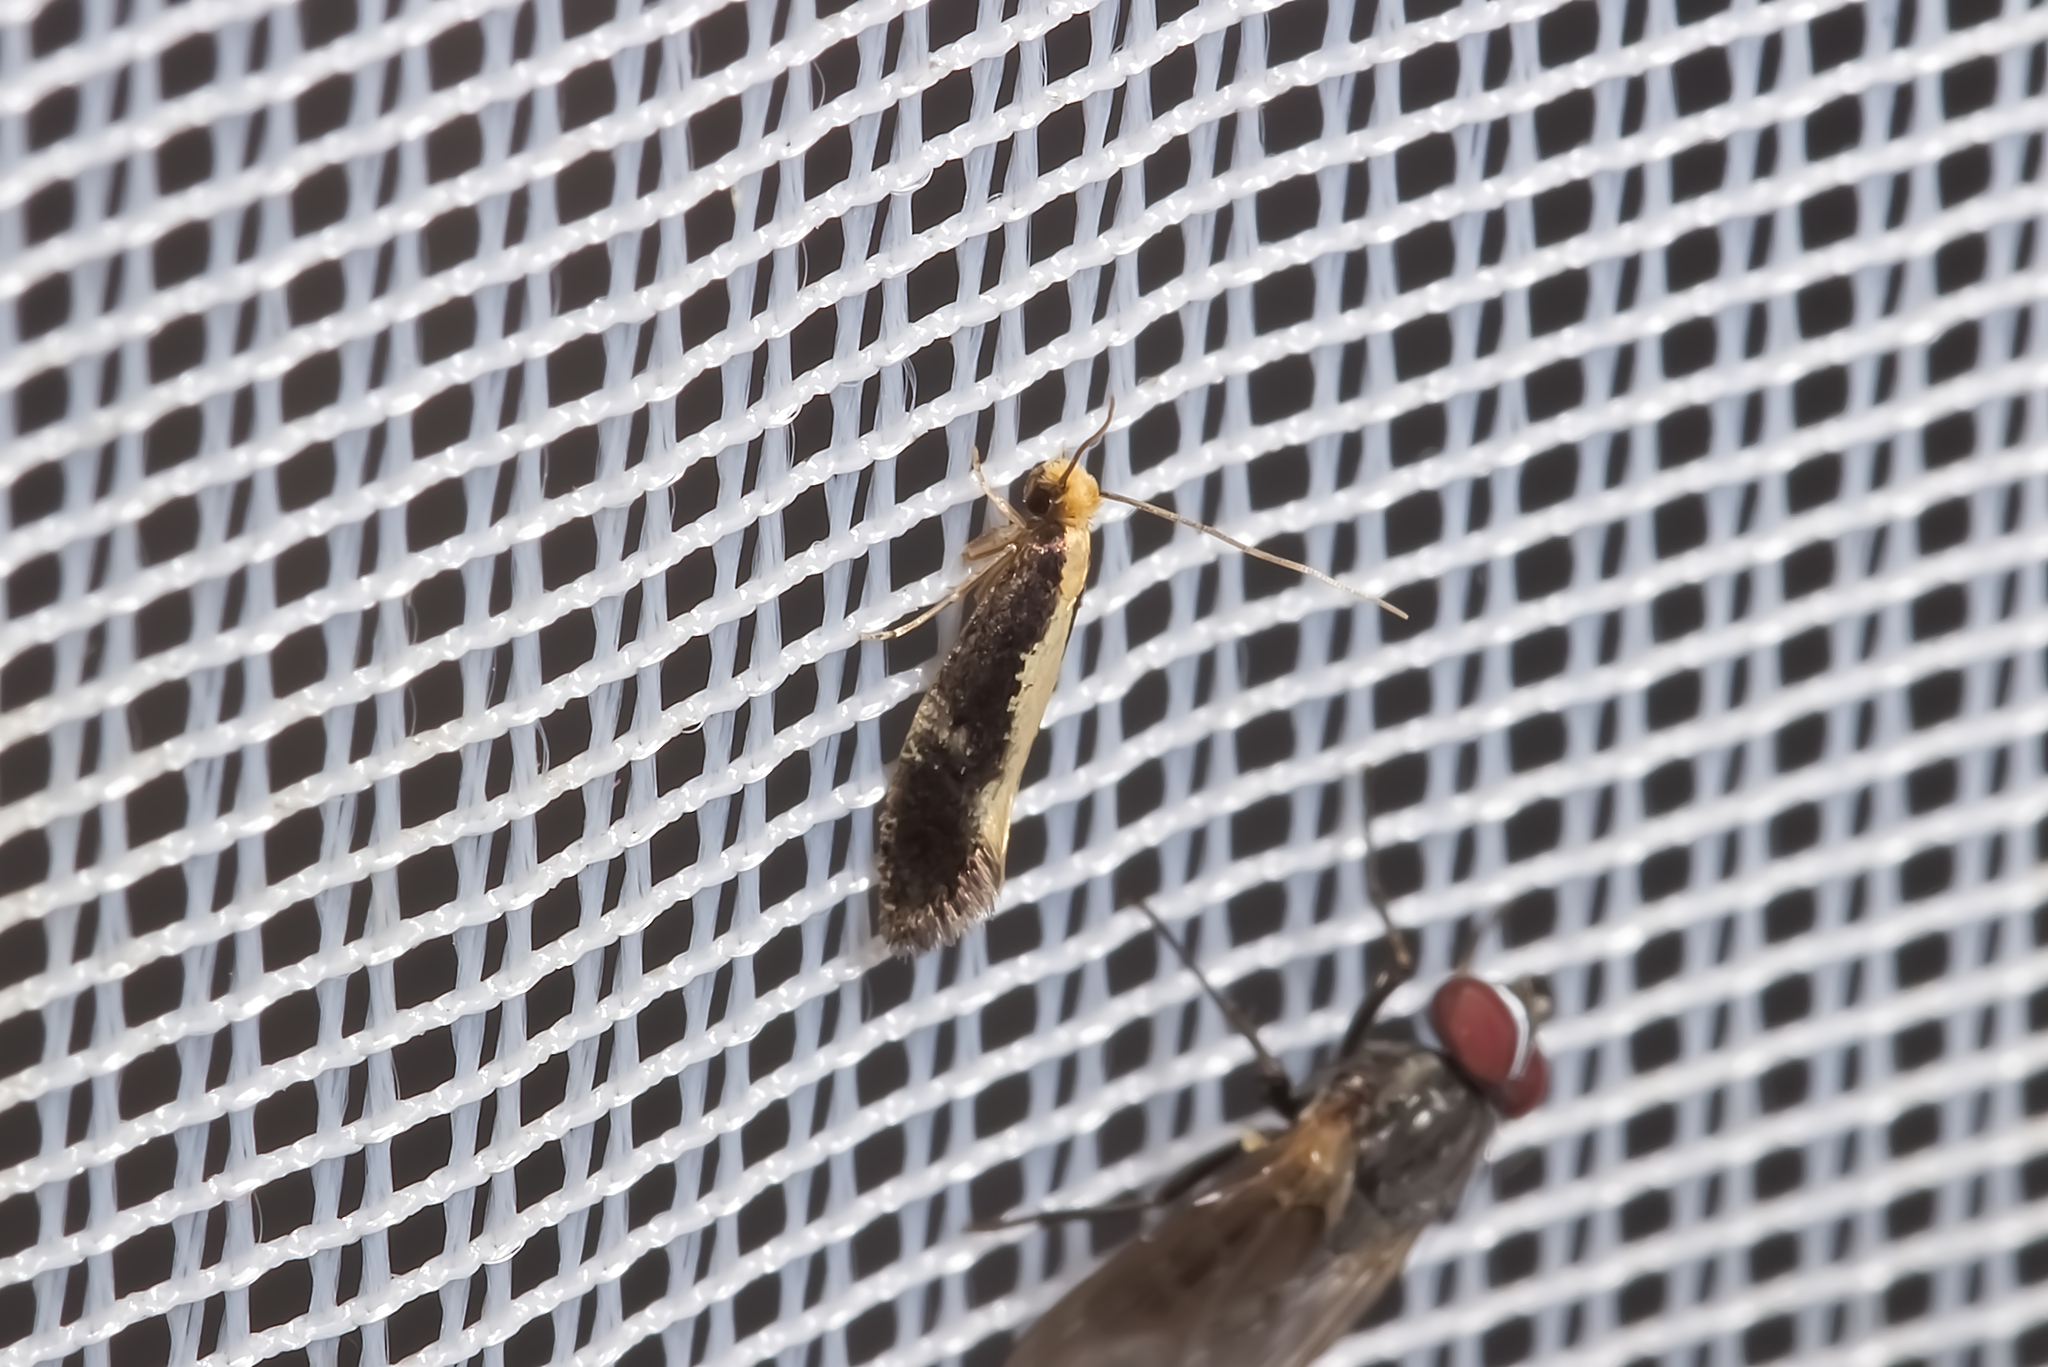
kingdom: Animalia
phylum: Arthropoda
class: Insecta
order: Lepidoptera
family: Tineidae
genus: Monopis
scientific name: Monopis obviella
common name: Tineid moth
